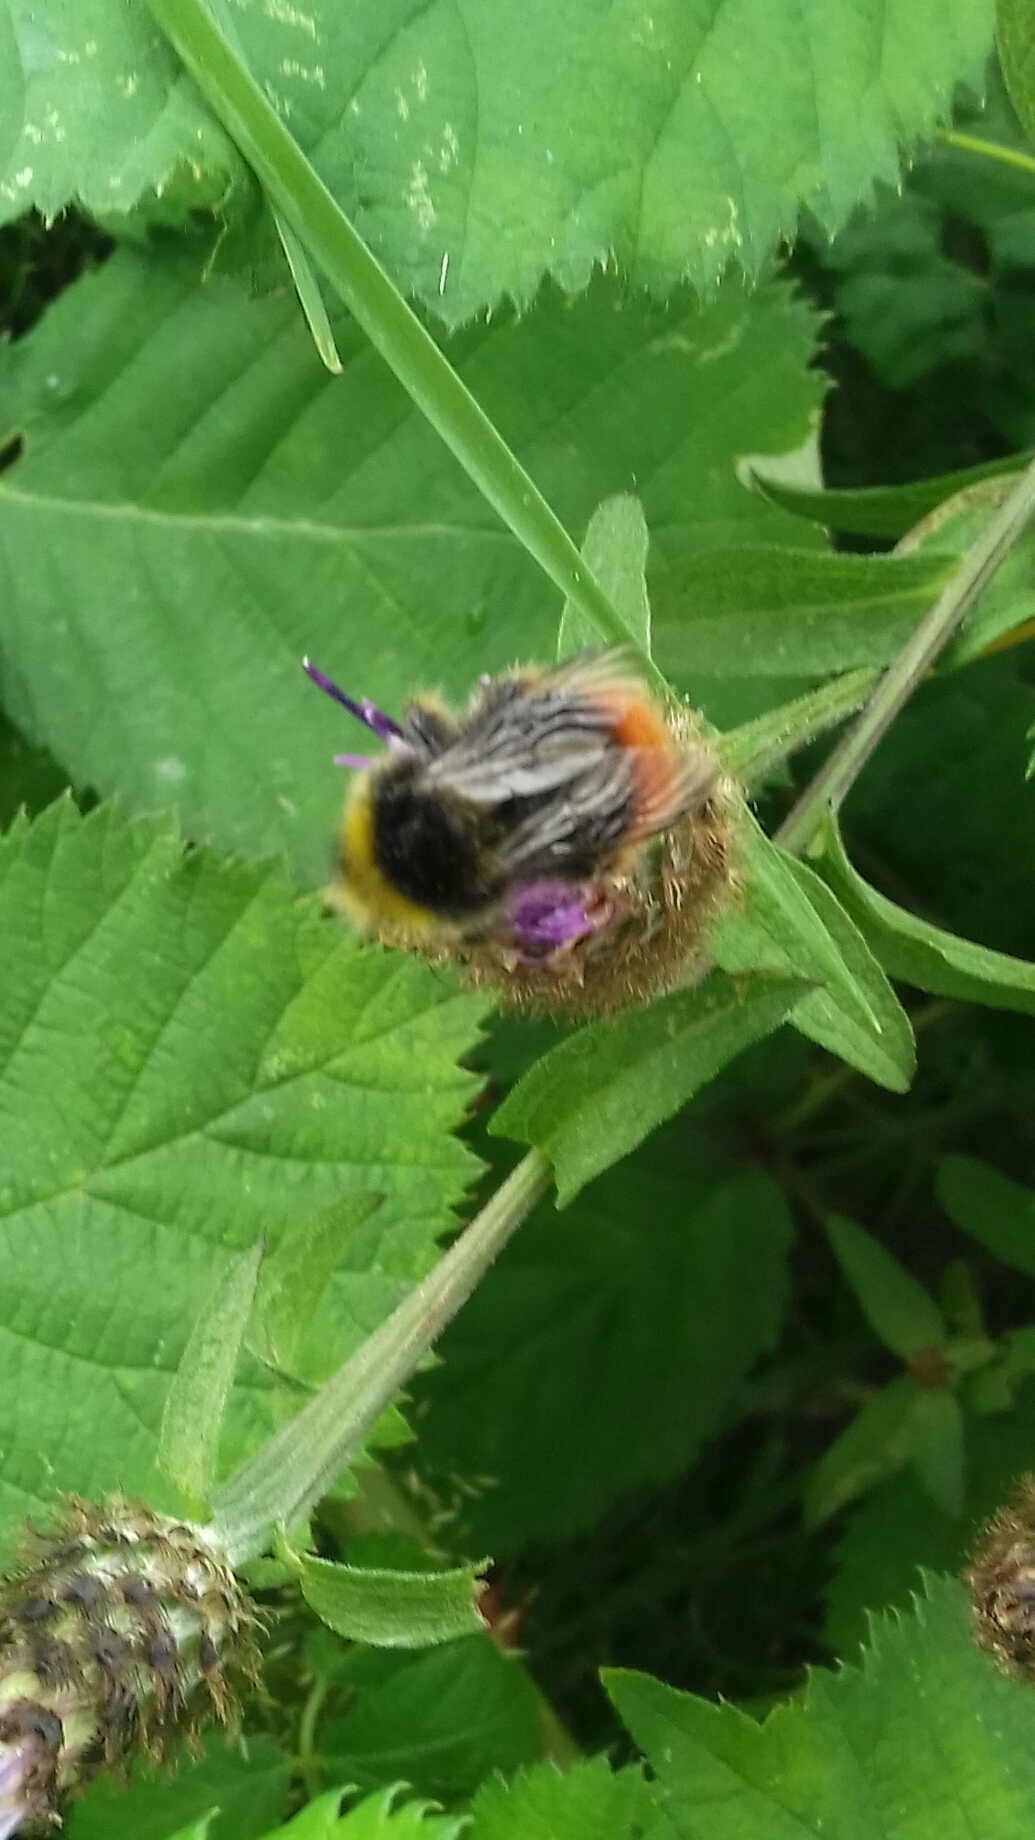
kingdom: Animalia
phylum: Arthropoda
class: Insecta
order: Hymenoptera
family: Apidae
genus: Bombus
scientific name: Bombus pratorum
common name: Early humble-bee
